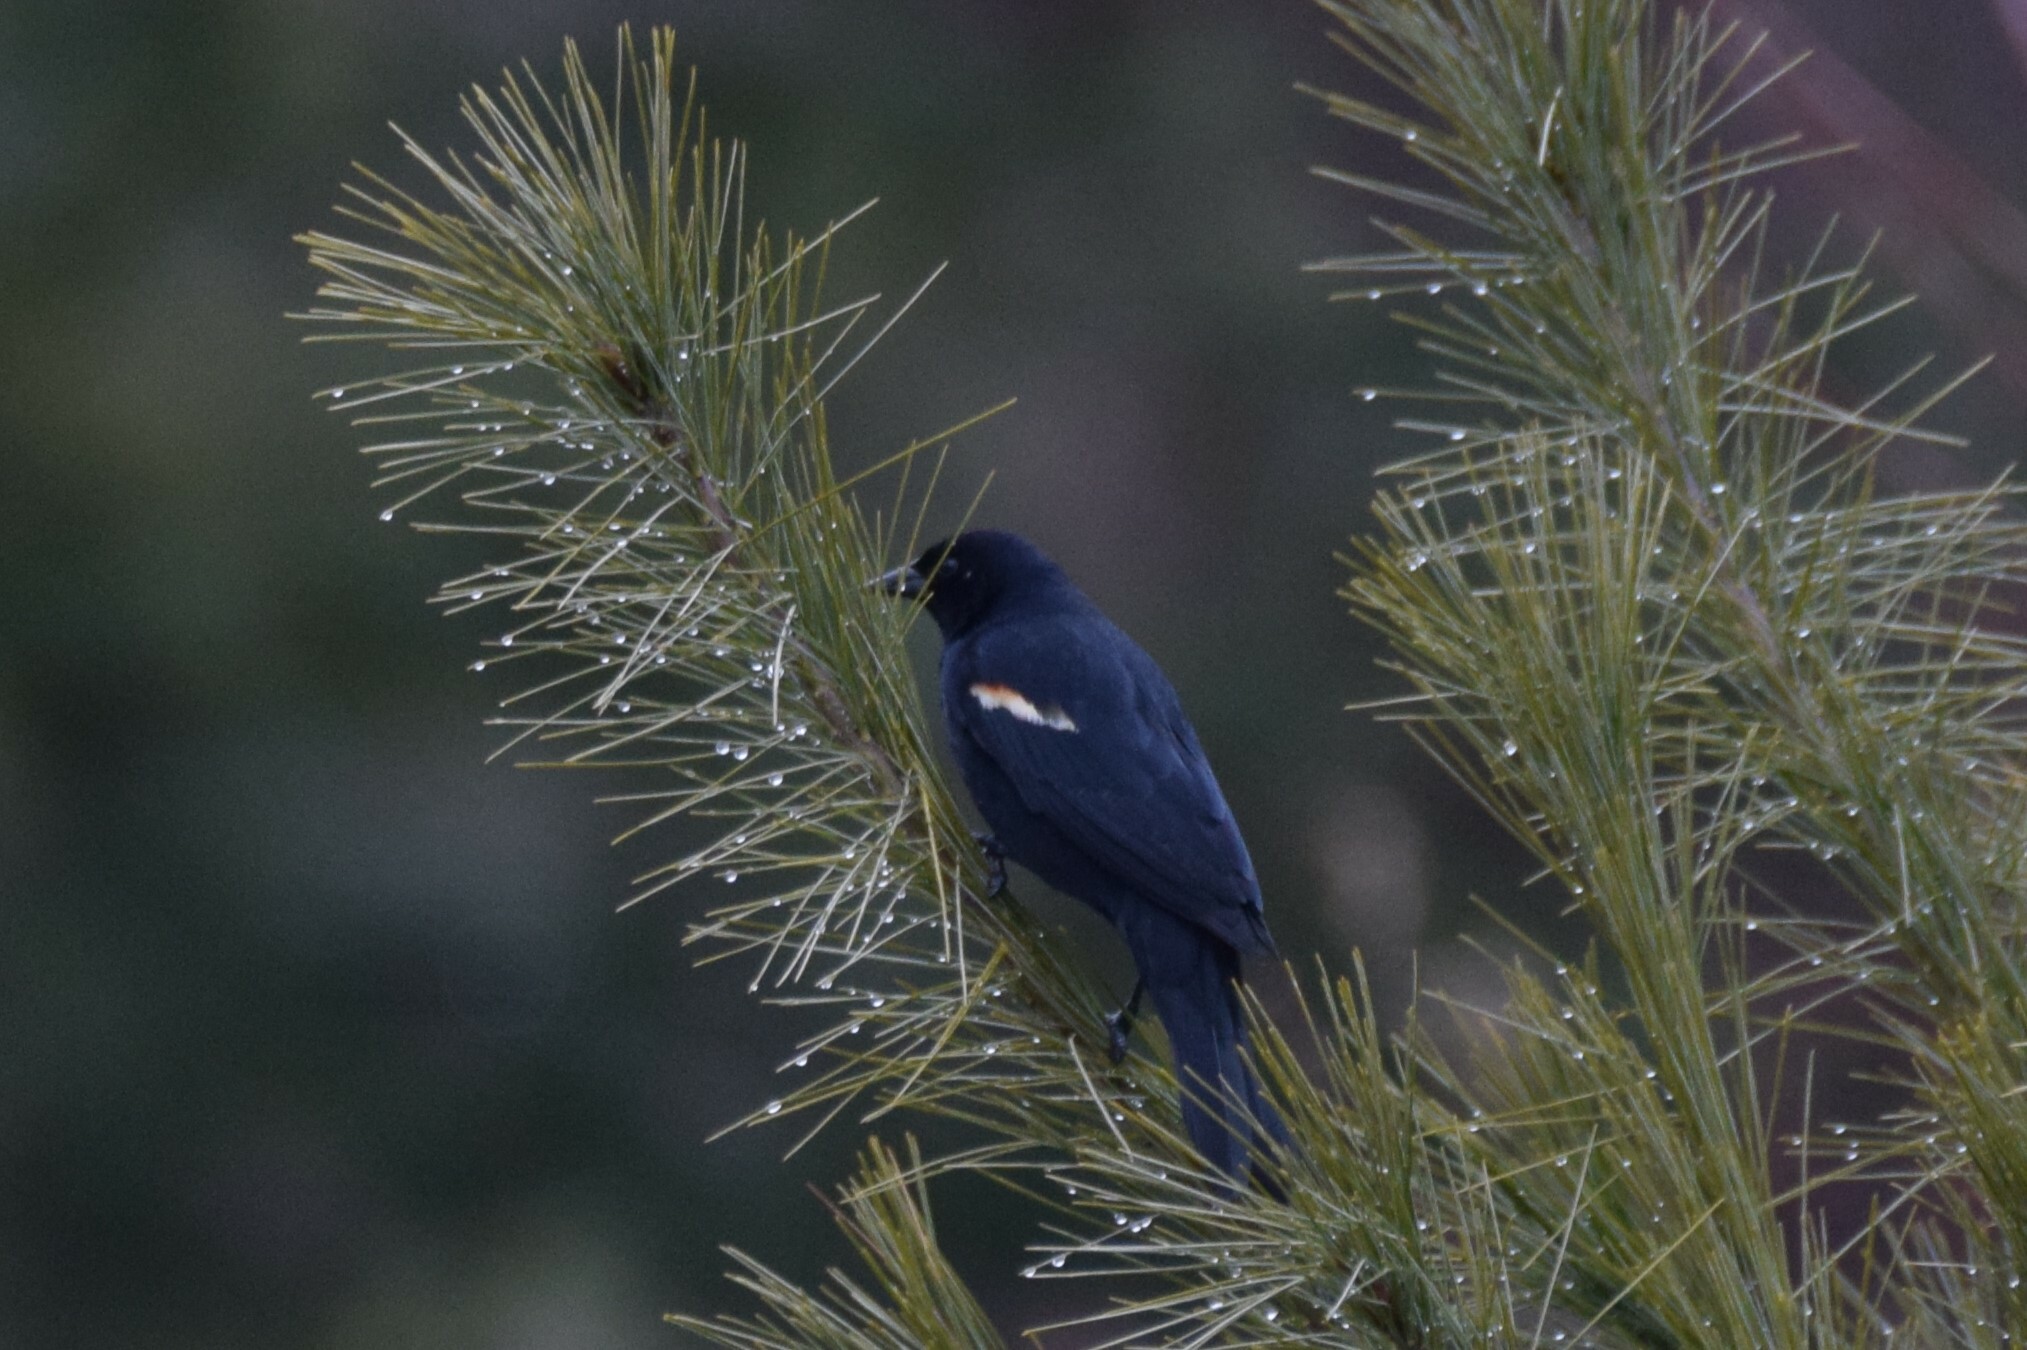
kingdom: Animalia
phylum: Chordata
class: Aves
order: Passeriformes
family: Icteridae
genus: Agelaius
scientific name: Agelaius phoeniceus
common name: Red-winged blackbird
